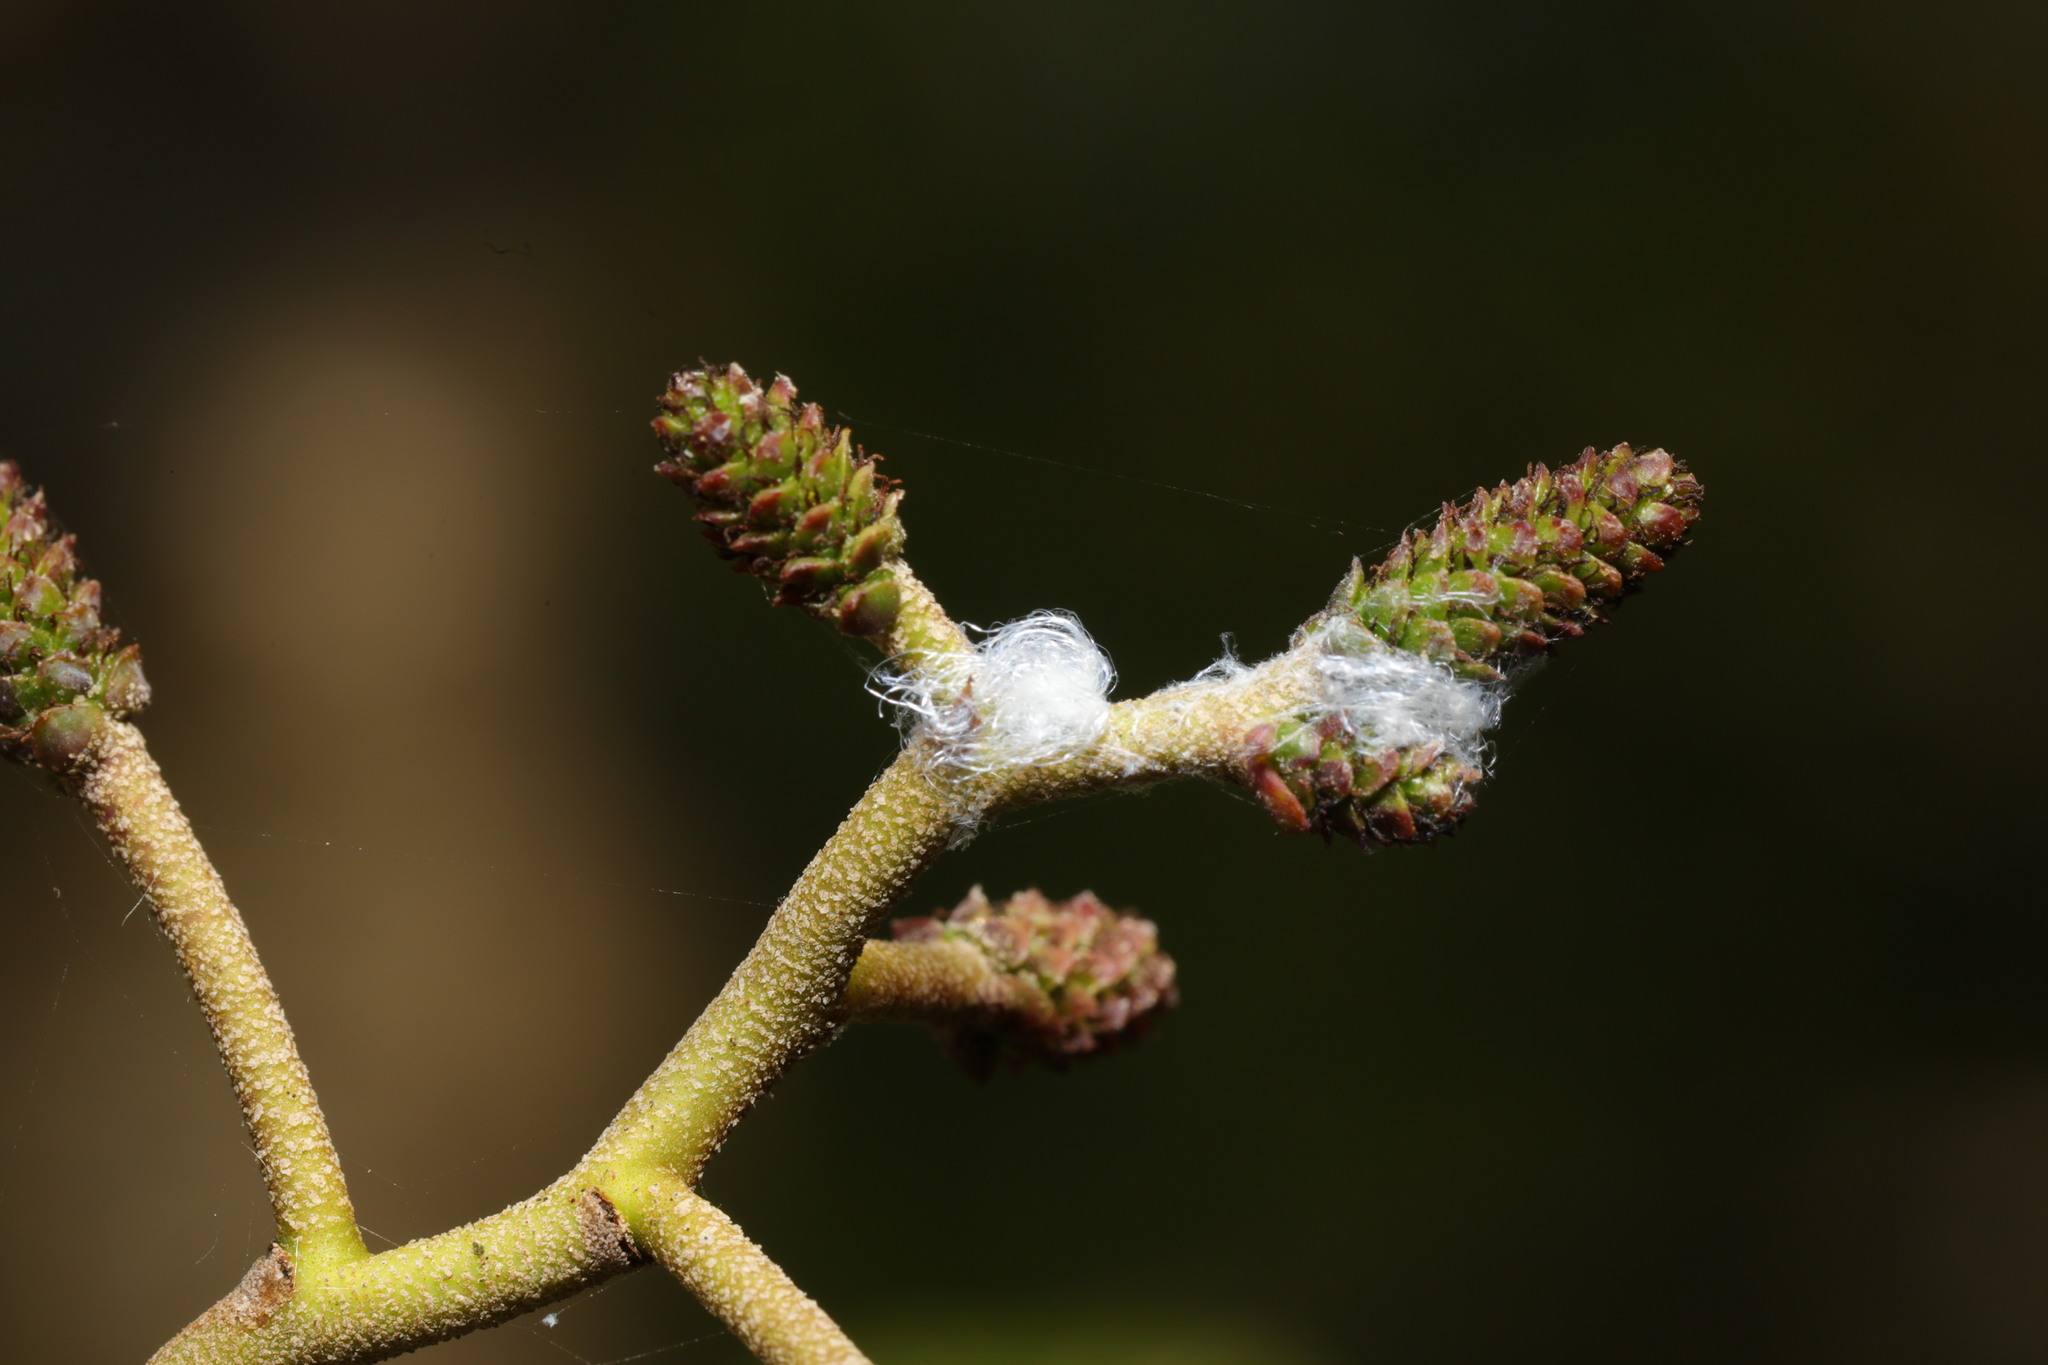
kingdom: Animalia
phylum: Arthropoda
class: Insecta
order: Hemiptera
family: Psyllidae
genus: Psylla
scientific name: Psylla alni
